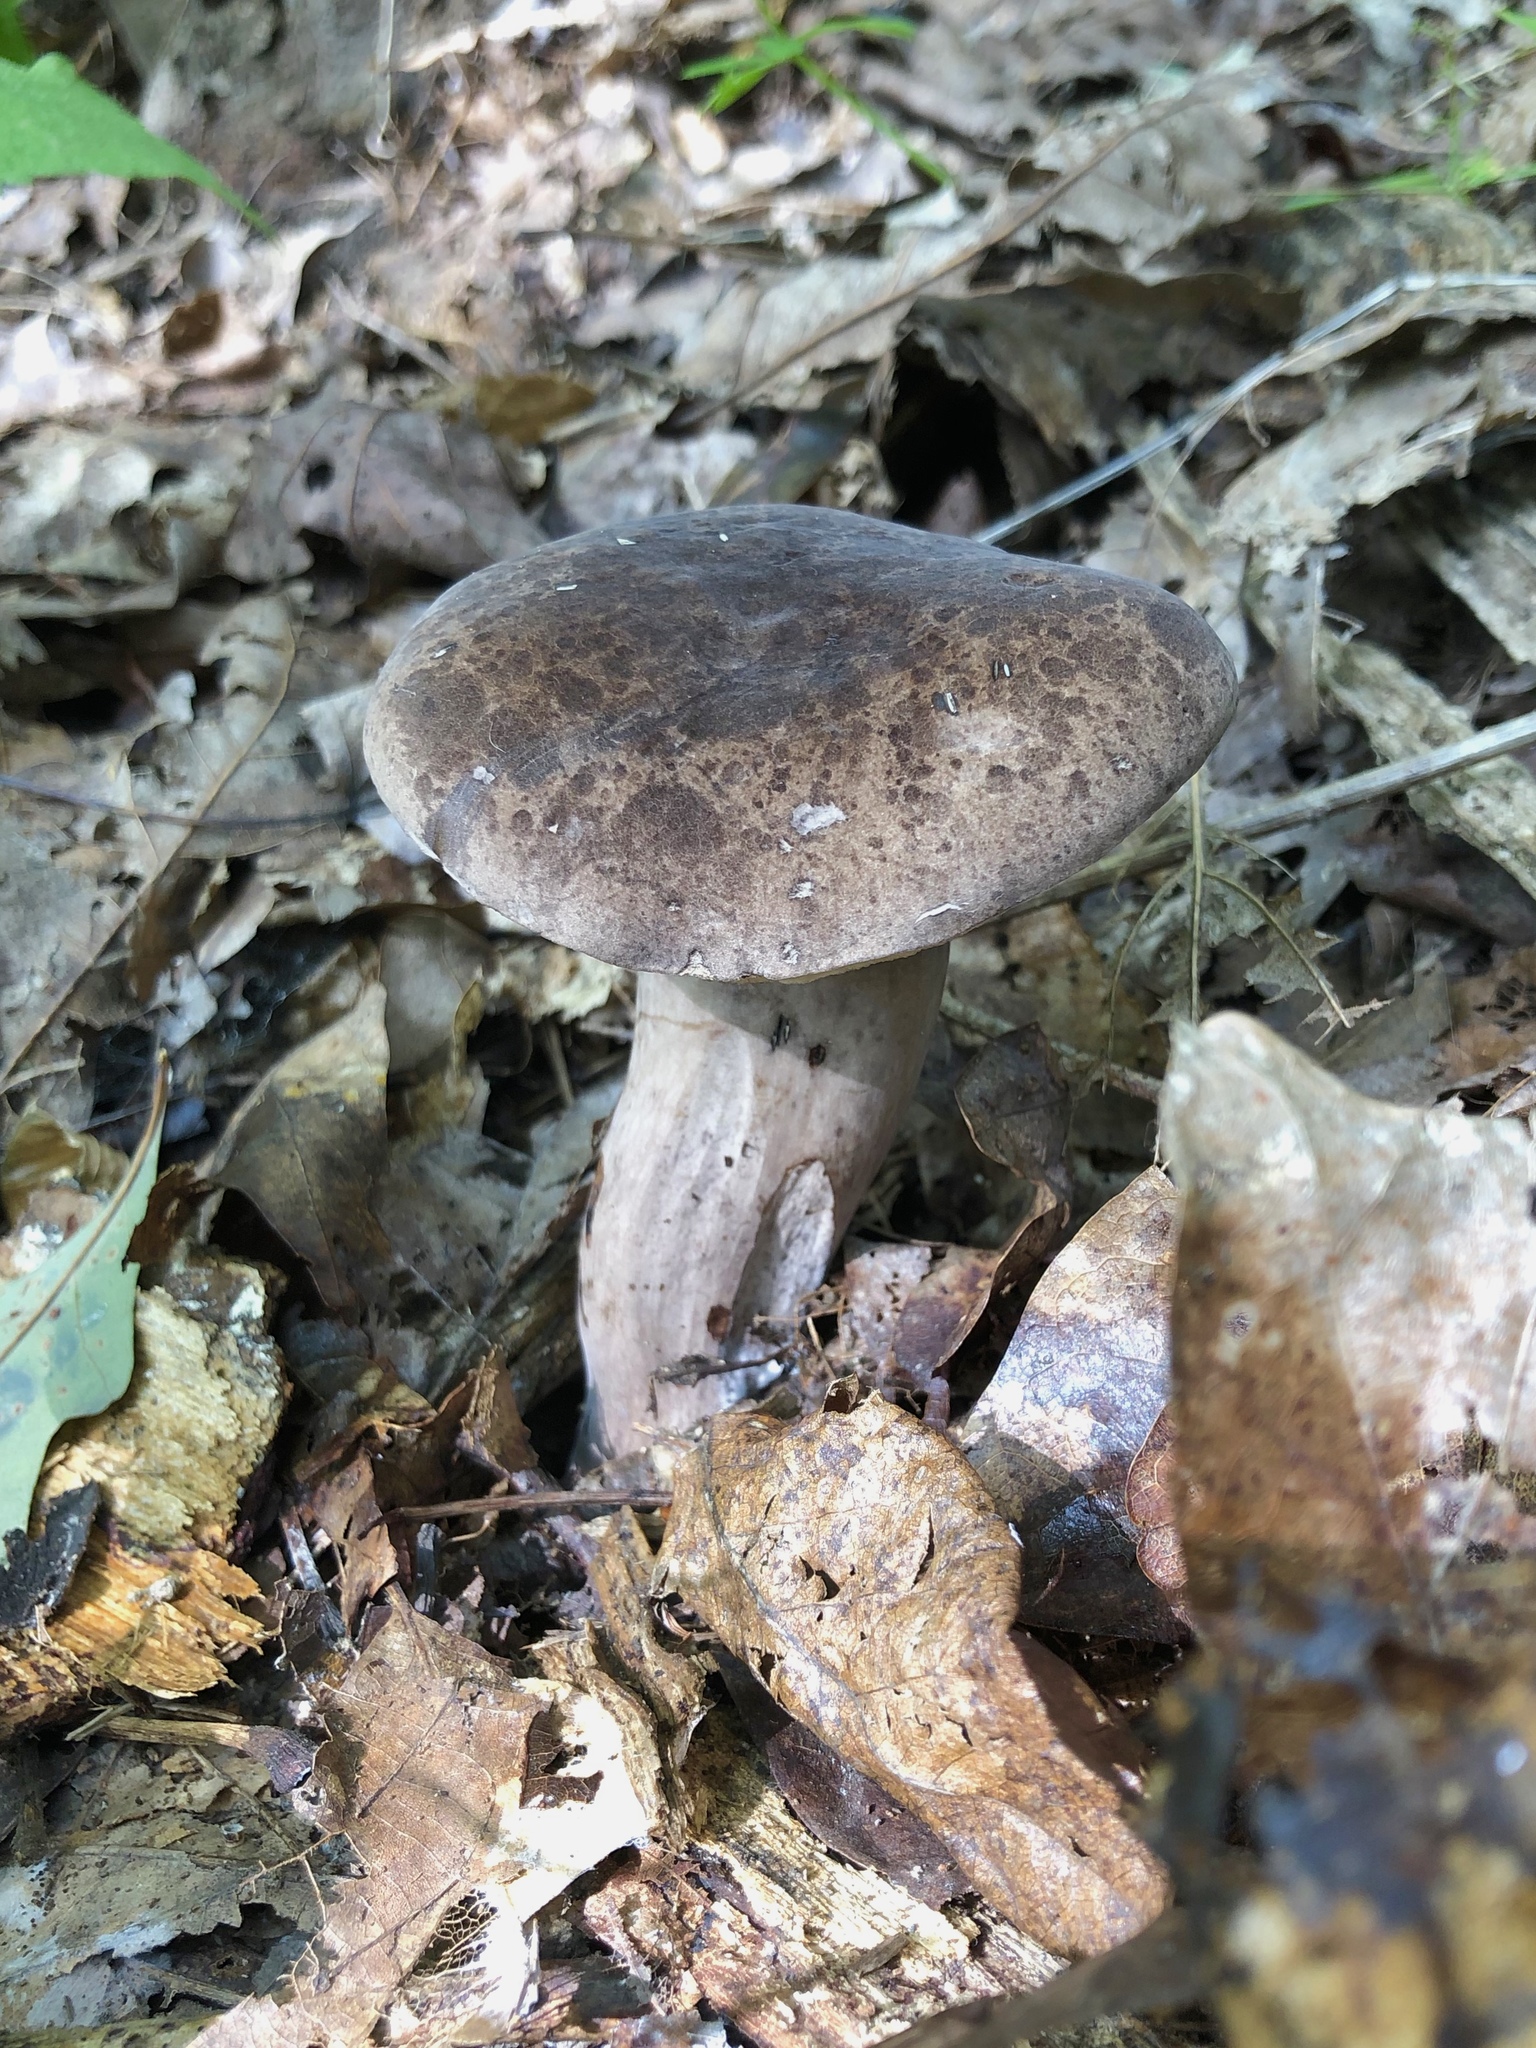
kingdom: Fungi
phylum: Basidiomycota
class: Agaricomycetes
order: Boletales
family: Boletaceae
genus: Tylopilus
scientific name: Tylopilus alboater
